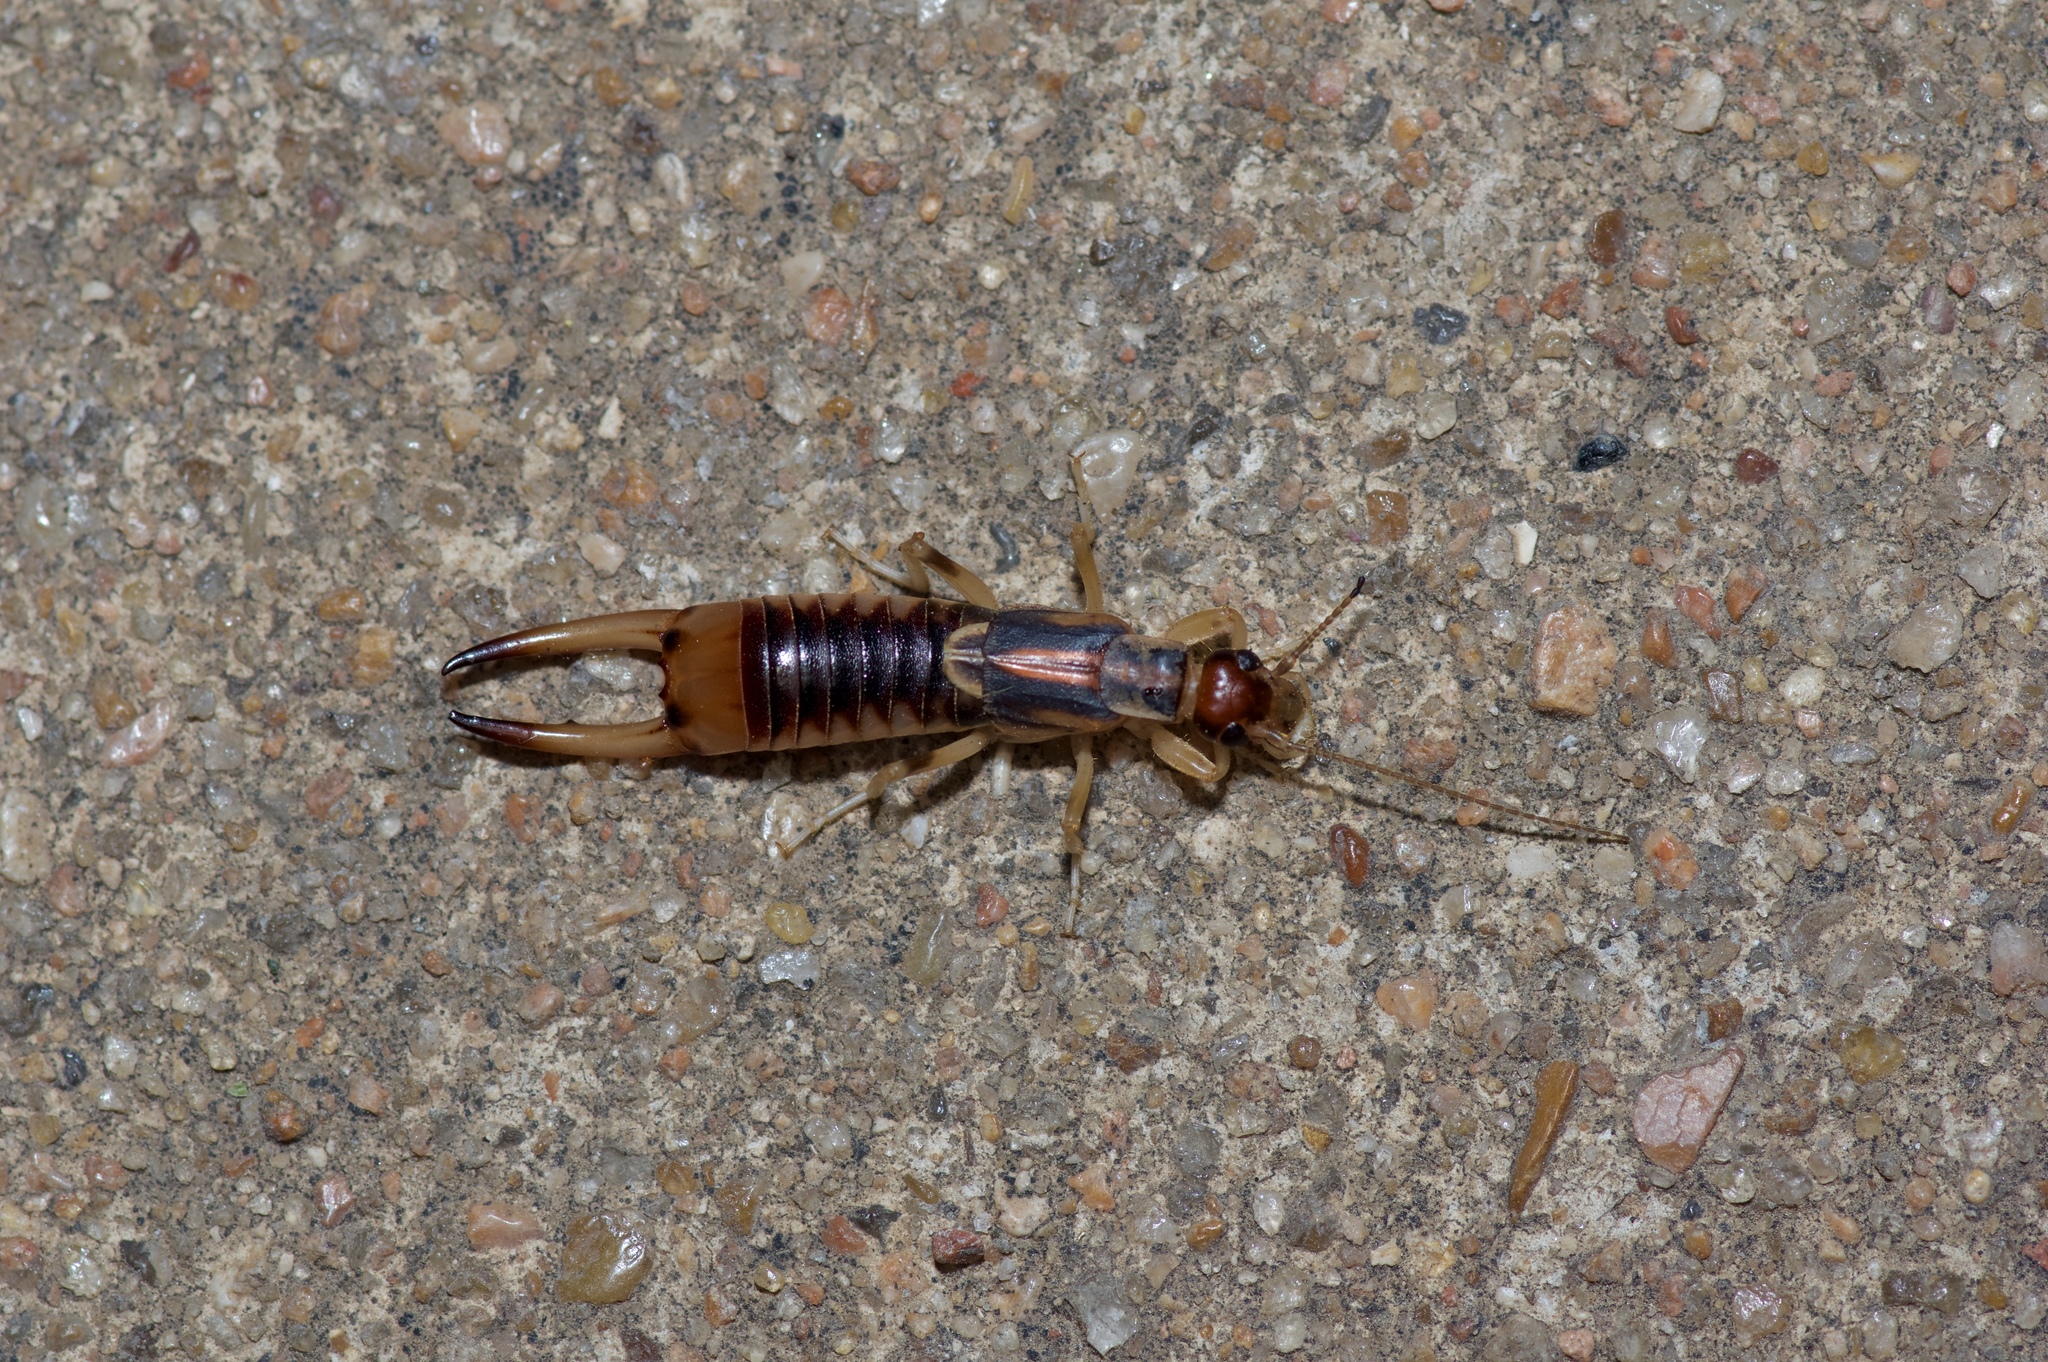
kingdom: Animalia
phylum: Arthropoda
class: Insecta
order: Dermaptera
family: Labiduridae
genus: Labidura
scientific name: Labidura riparia
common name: Striped earwig
